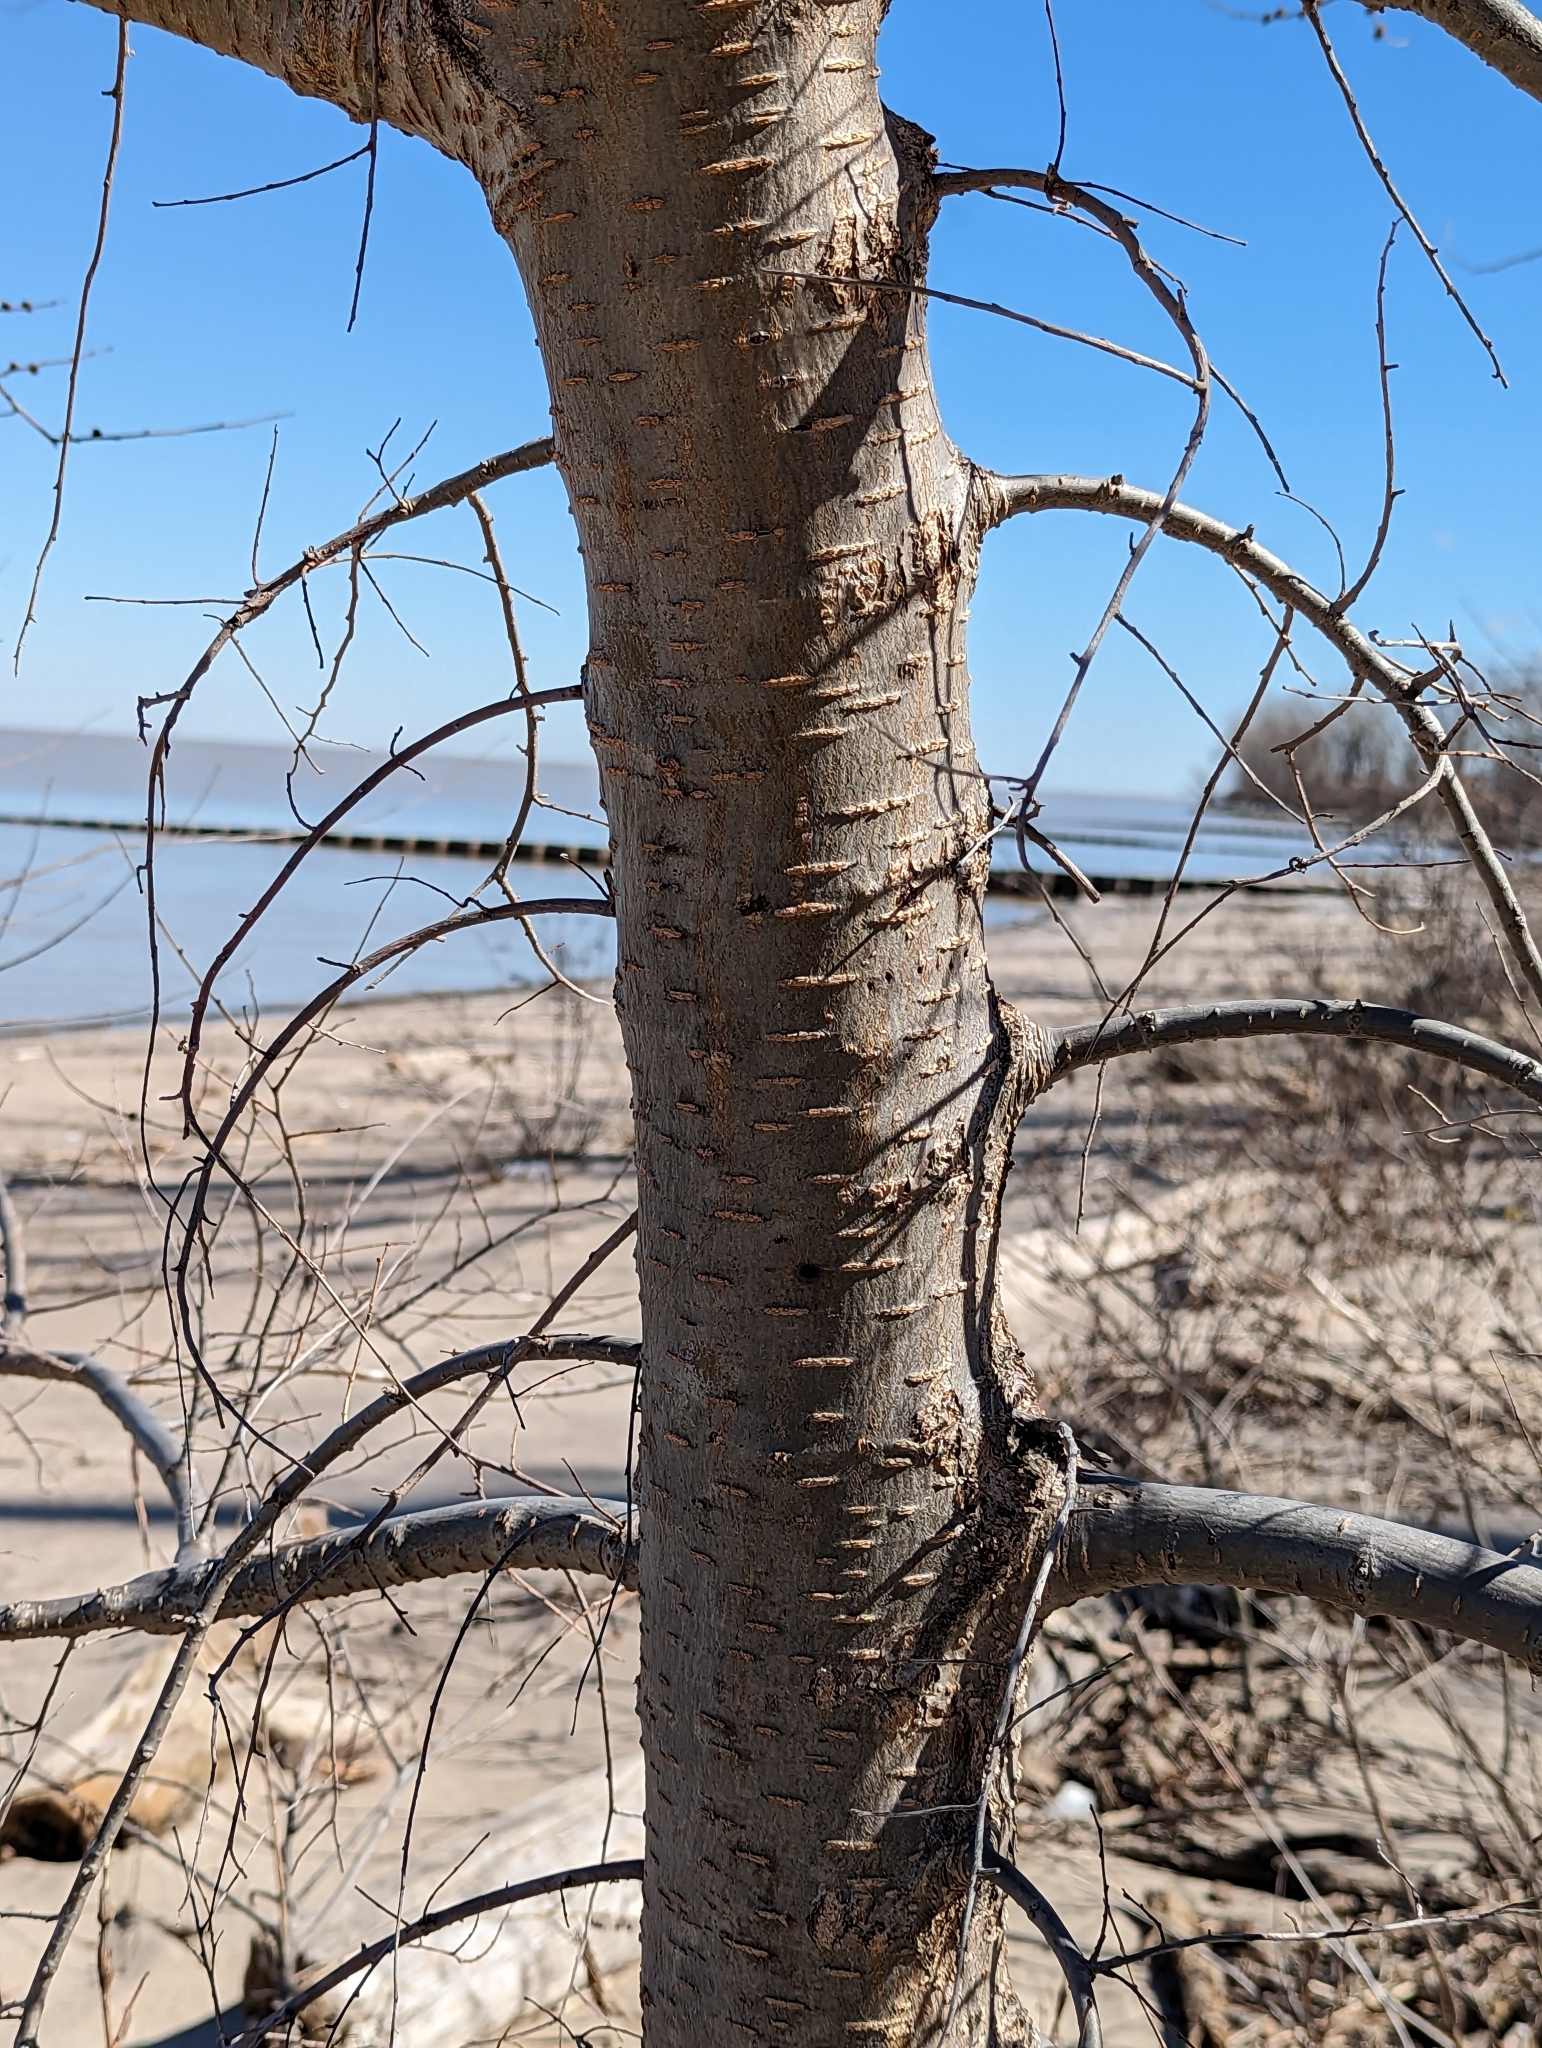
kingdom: Plantae
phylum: Tracheophyta
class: Magnoliopsida
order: Rosales
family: Ulmaceae
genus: Ulmus
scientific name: Ulmus pumila
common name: Siberian elm
